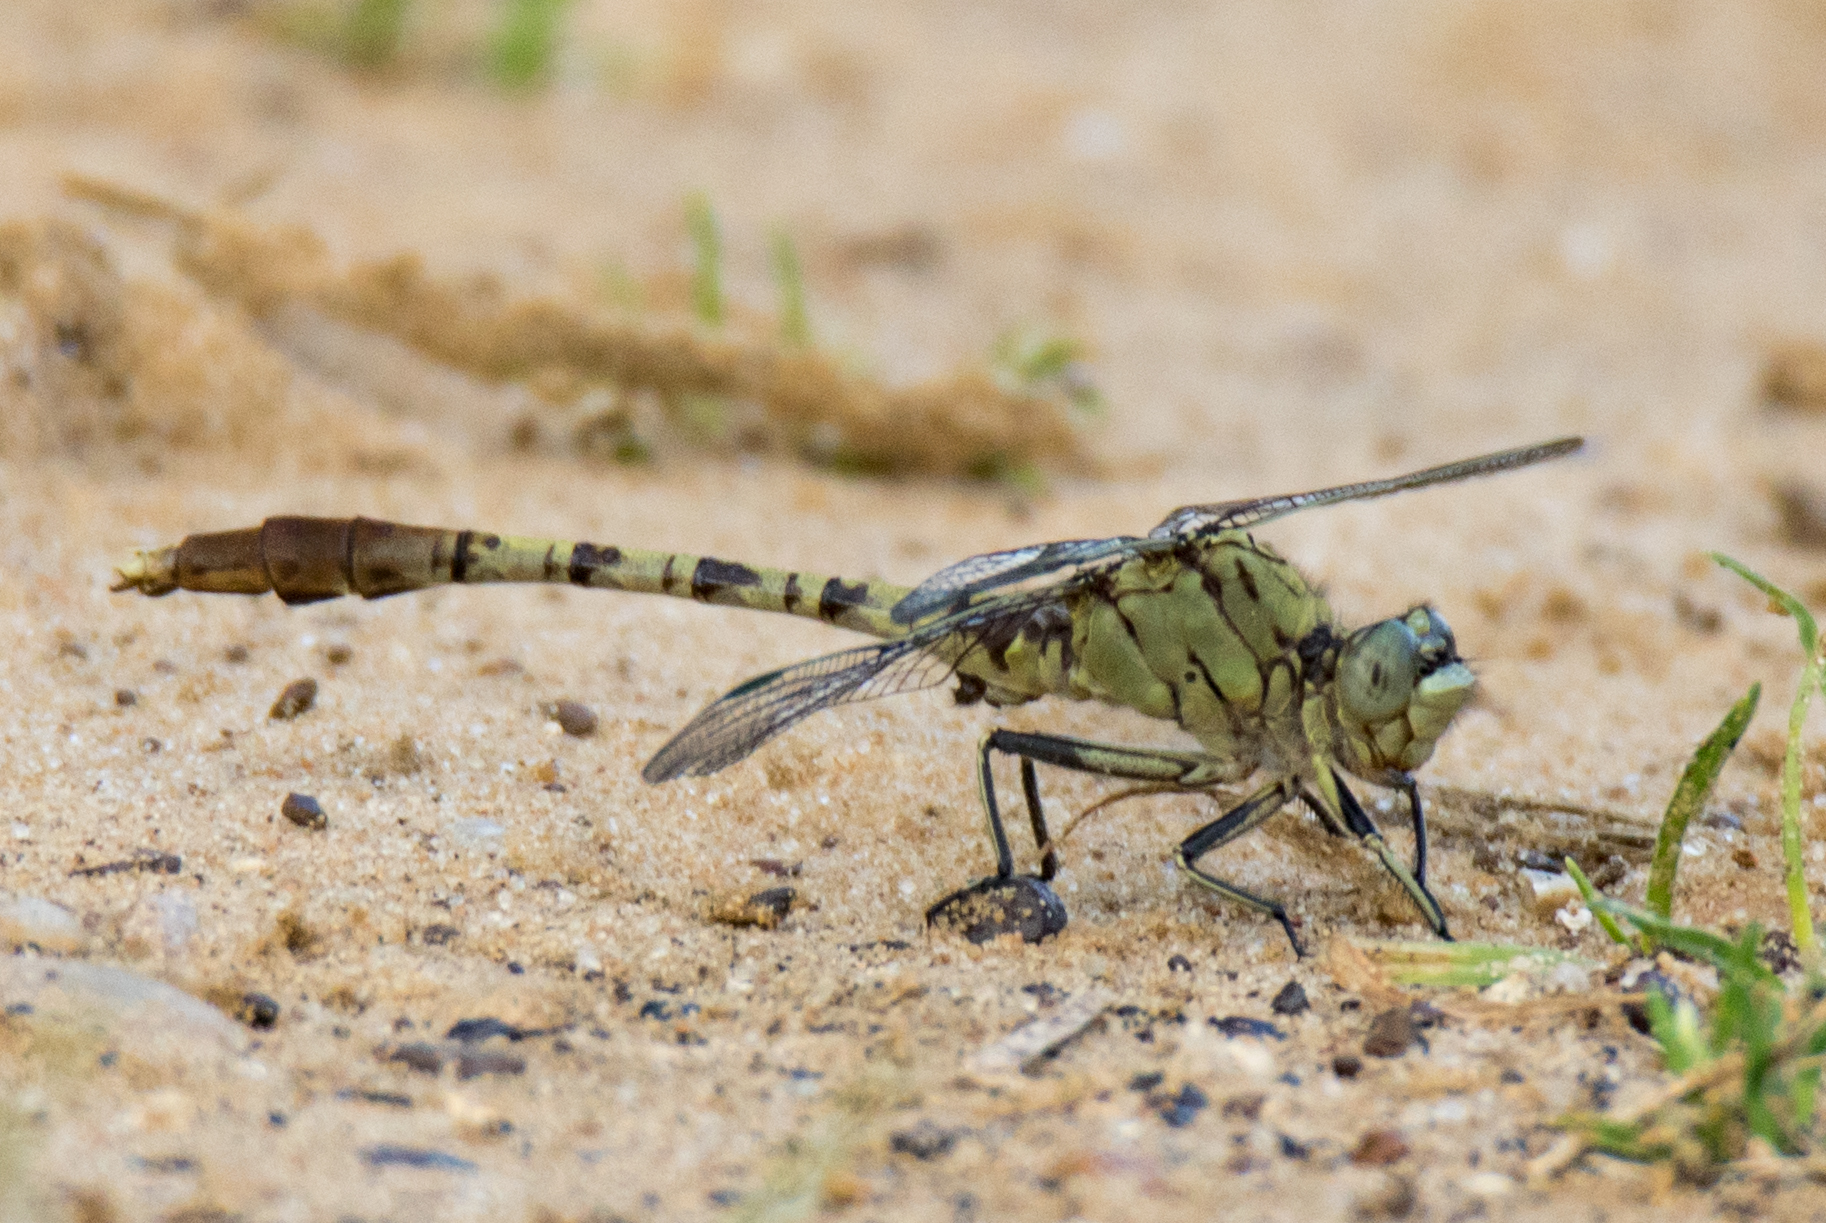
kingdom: Animalia
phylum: Arthropoda
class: Insecta
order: Odonata
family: Gomphidae
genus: Arigomphus
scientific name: Arigomphus submedianus
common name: Jade clubtail
